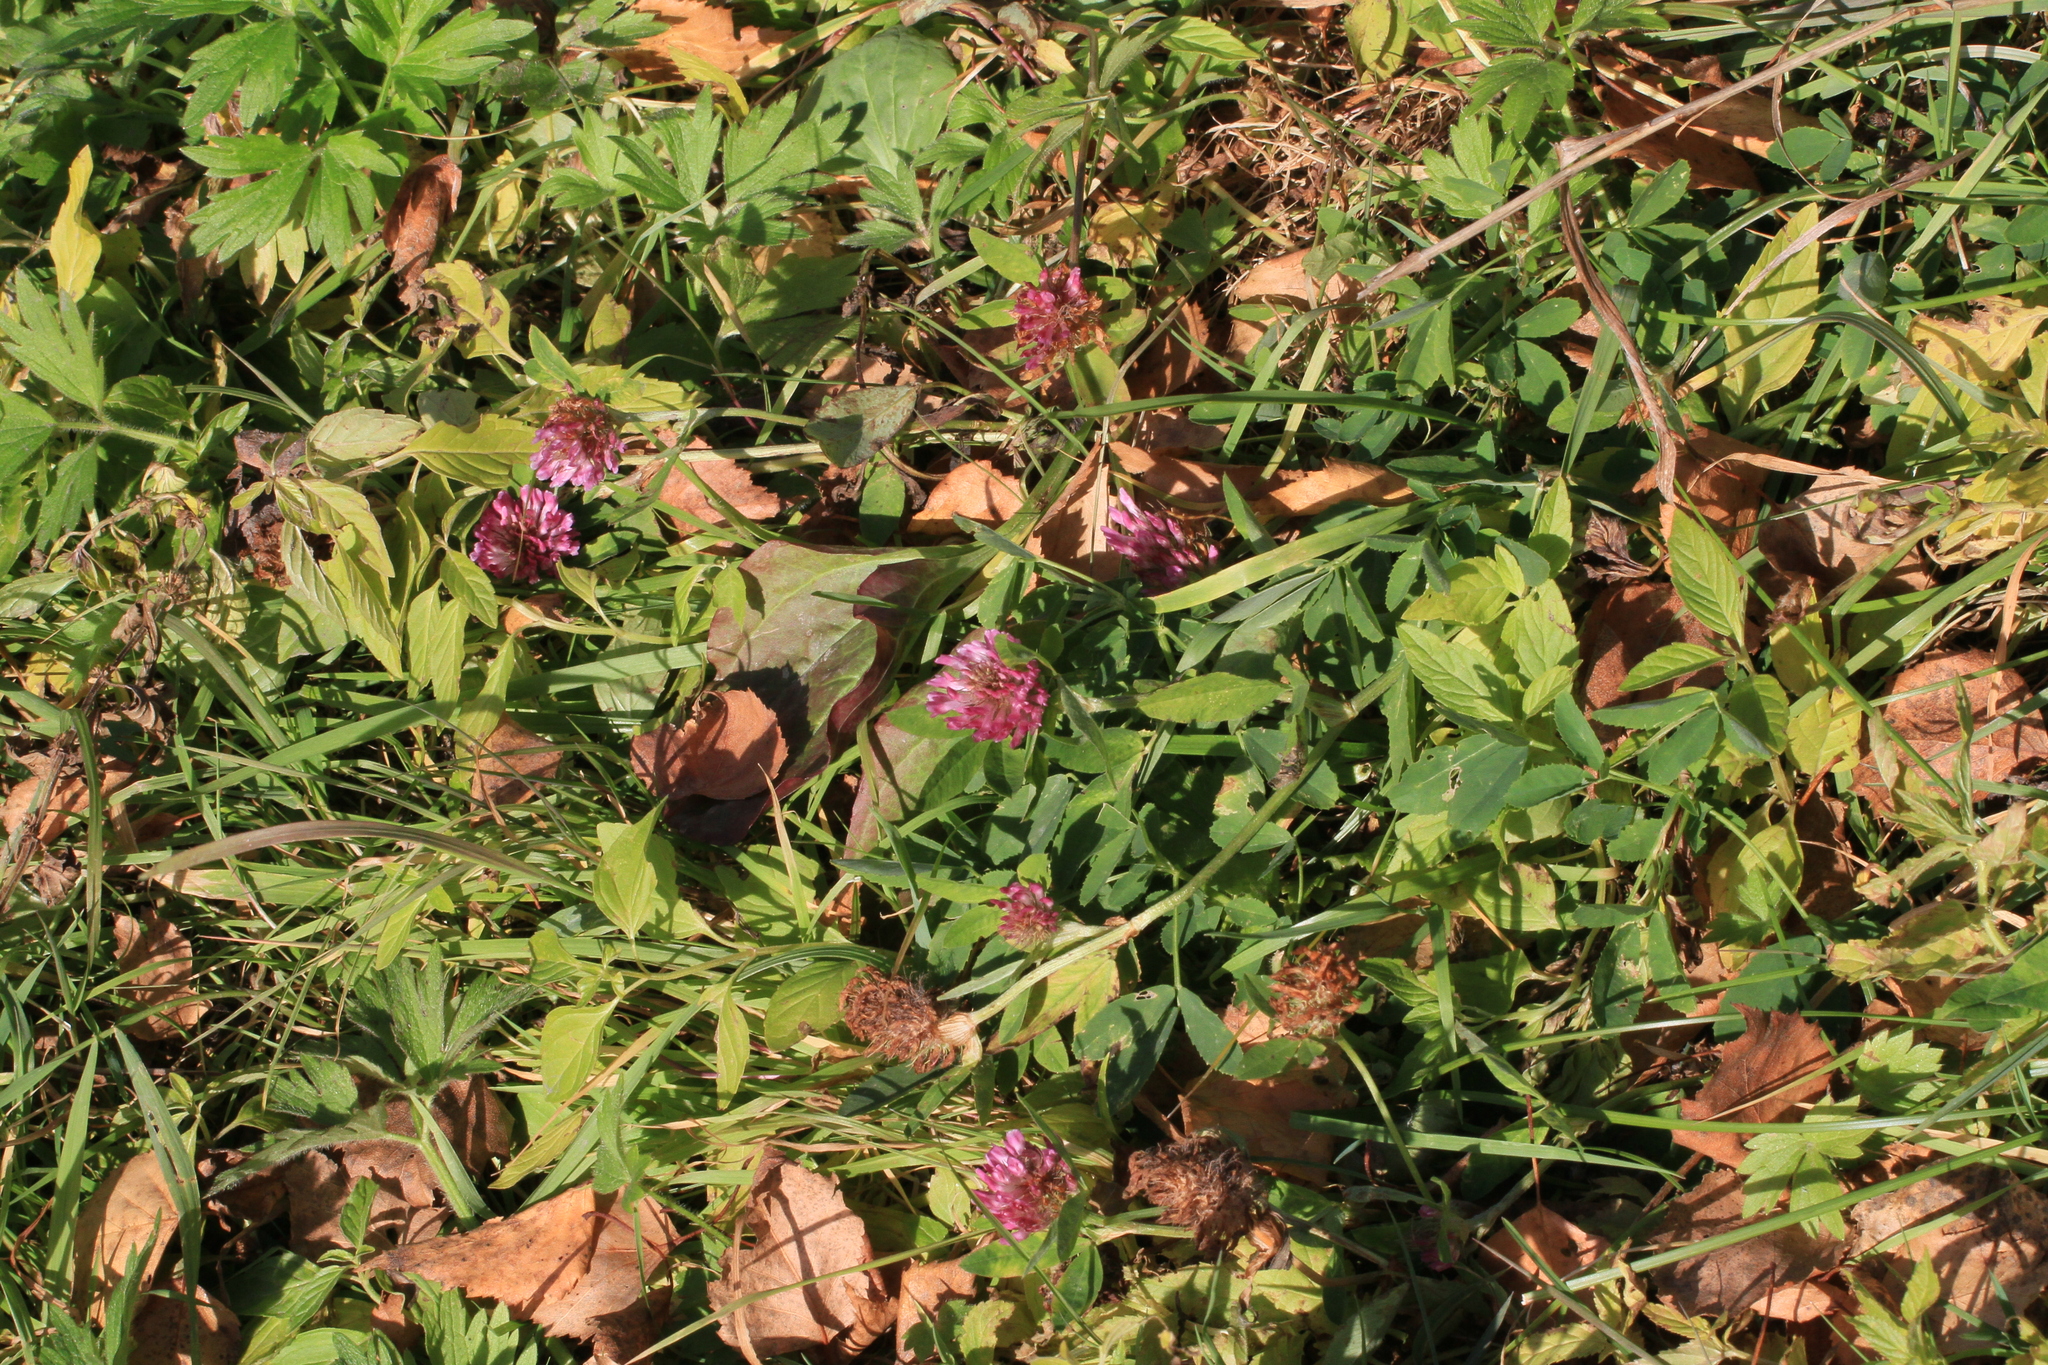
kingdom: Plantae
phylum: Tracheophyta
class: Magnoliopsida
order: Fabales
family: Fabaceae
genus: Trifolium
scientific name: Trifolium pratense
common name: Red clover
